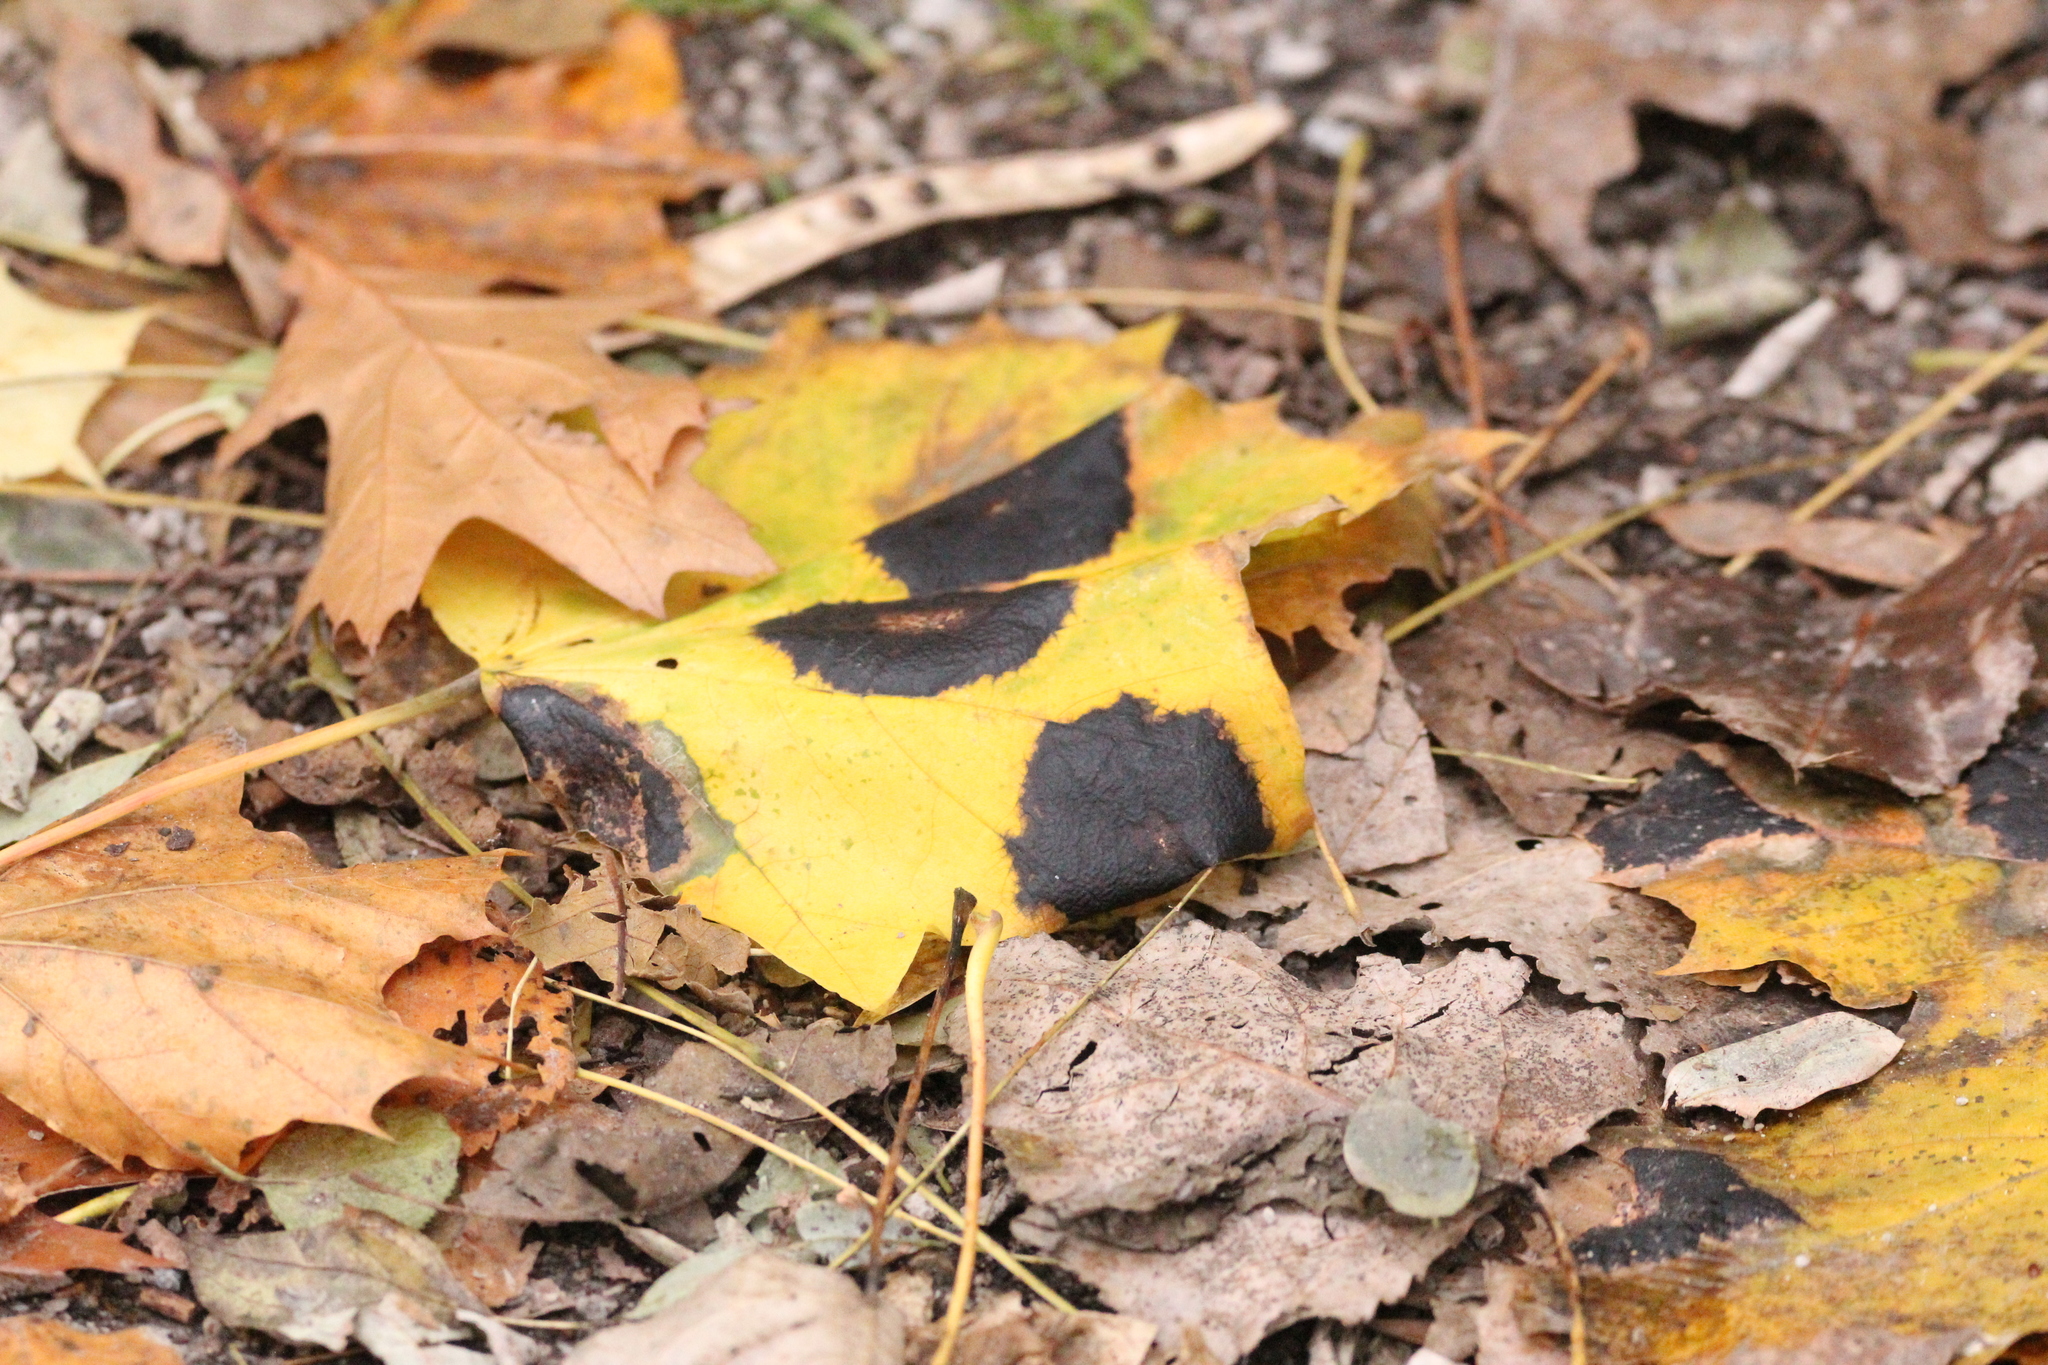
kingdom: Fungi
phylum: Ascomycota
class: Leotiomycetes
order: Rhytismatales
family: Rhytismataceae
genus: Rhytisma
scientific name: Rhytisma acerinum
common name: European tar spot
